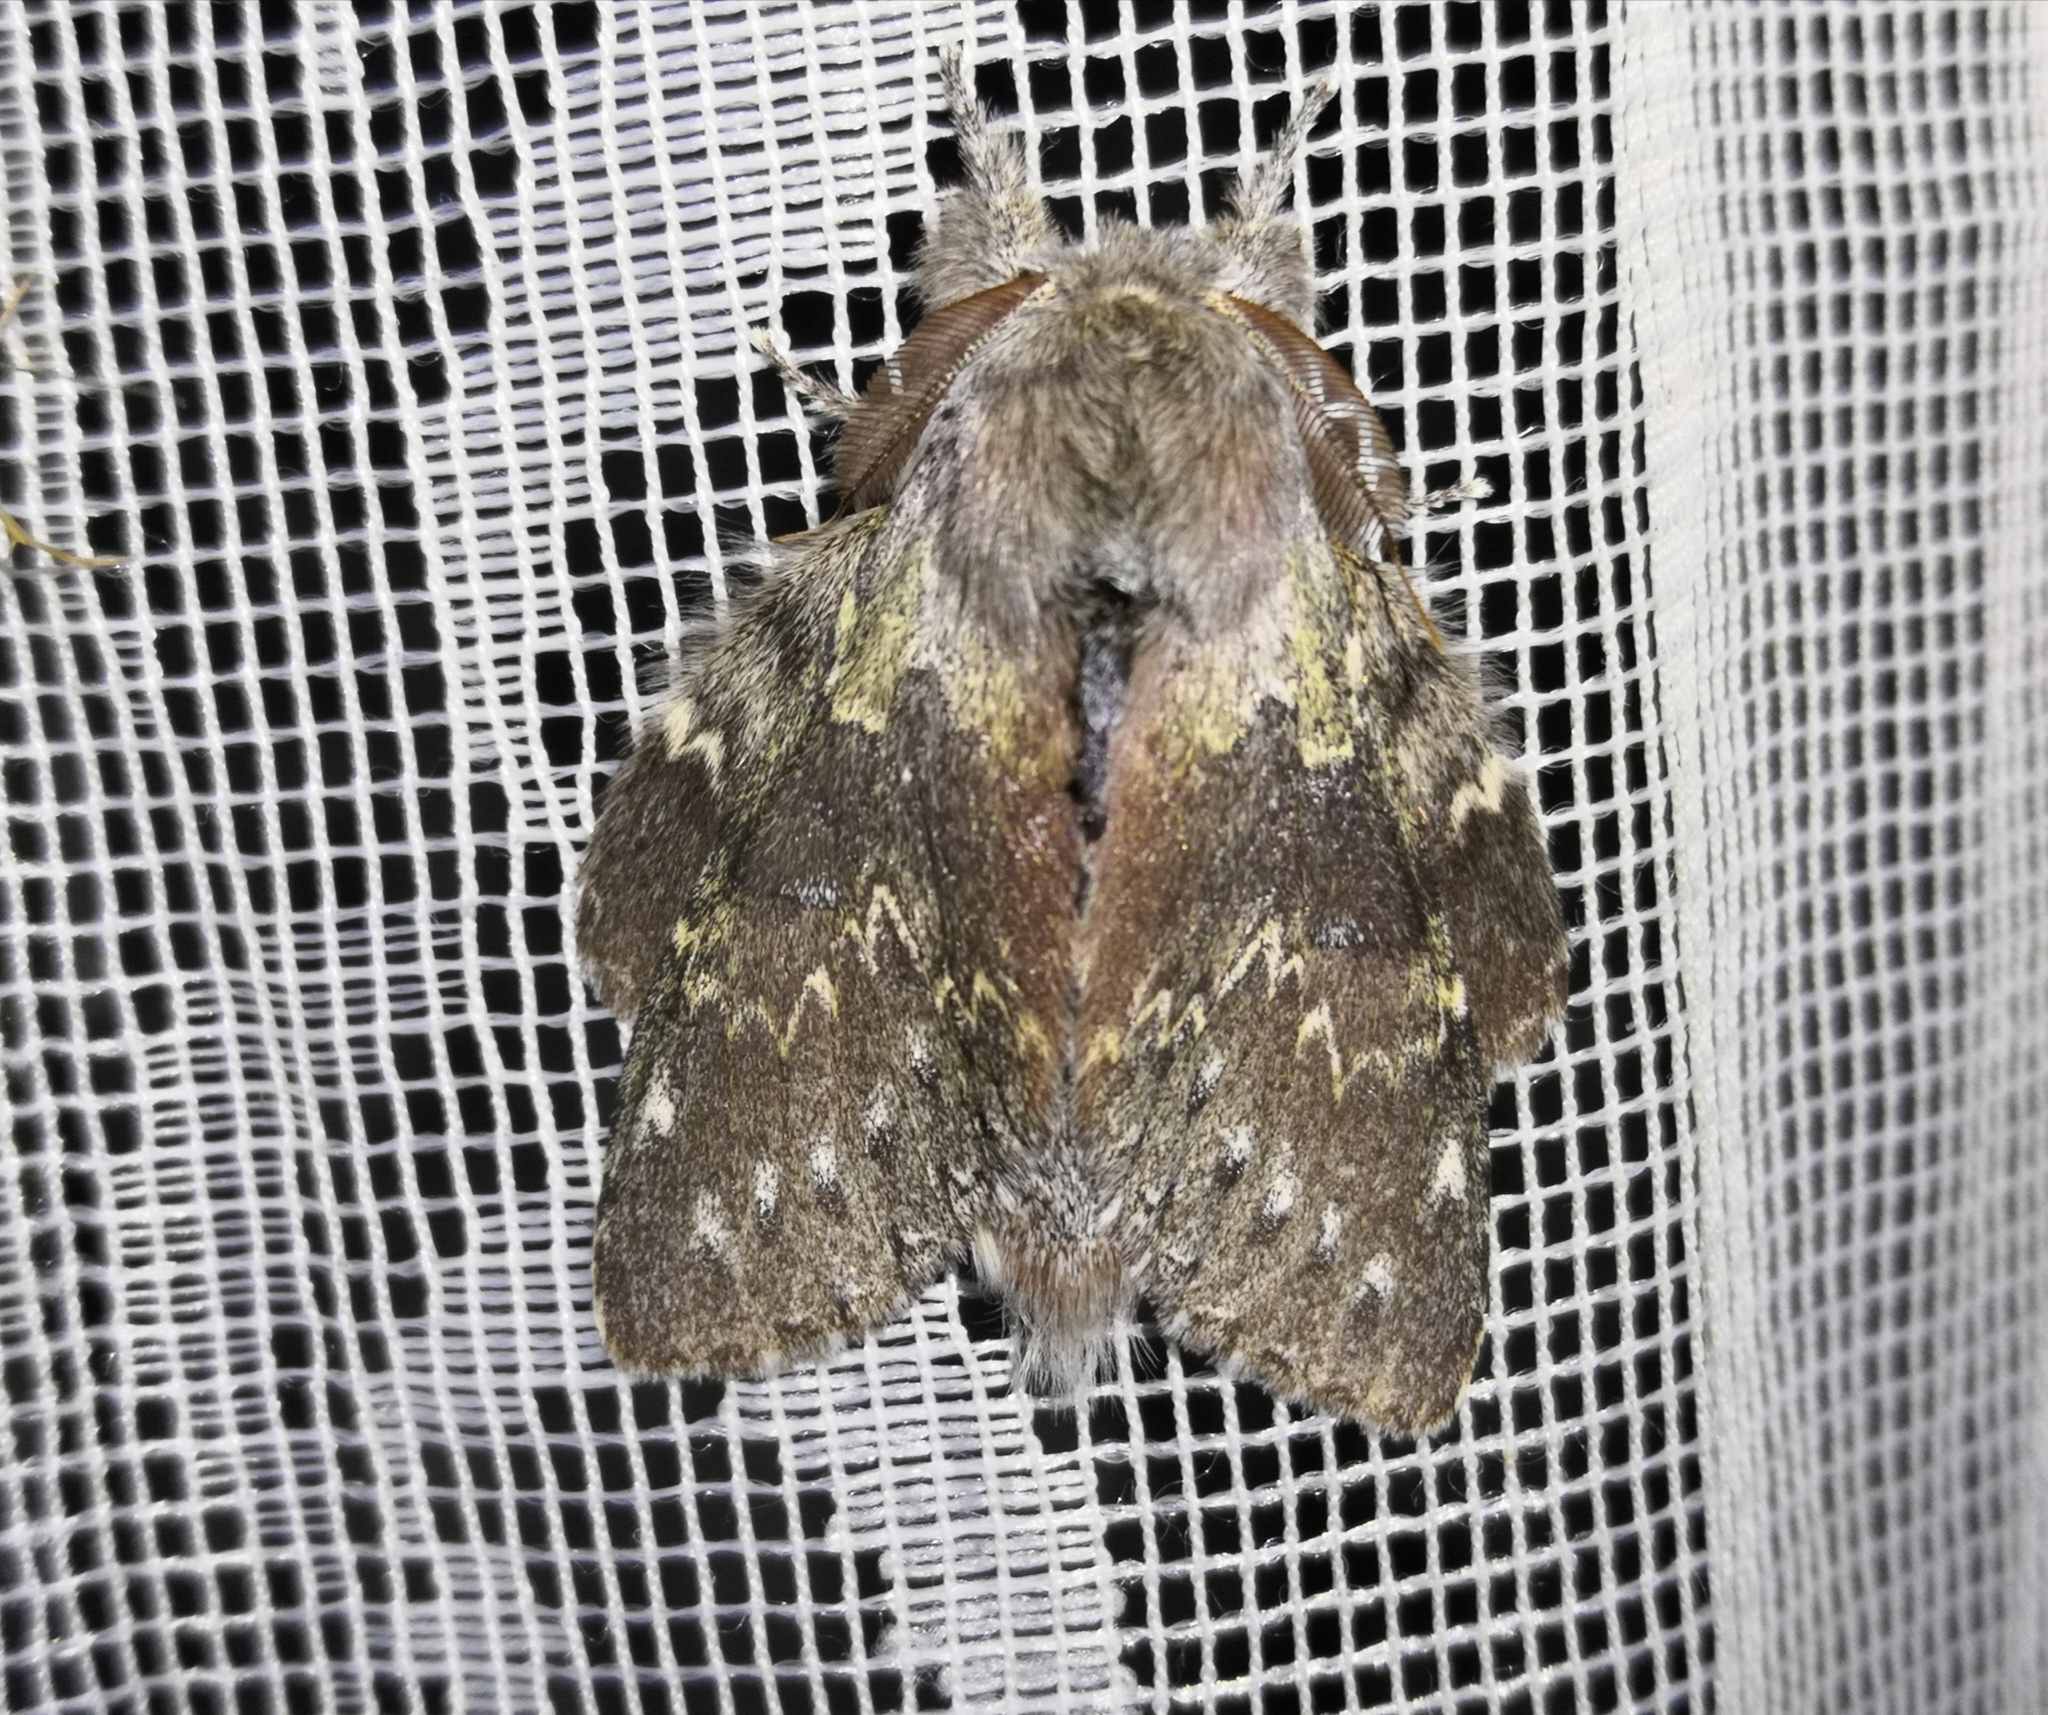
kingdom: Animalia
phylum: Arthropoda
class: Insecta
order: Lepidoptera
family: Notodontidae
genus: Stauropus
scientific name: Stauropus fagi
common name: Lobster moth
